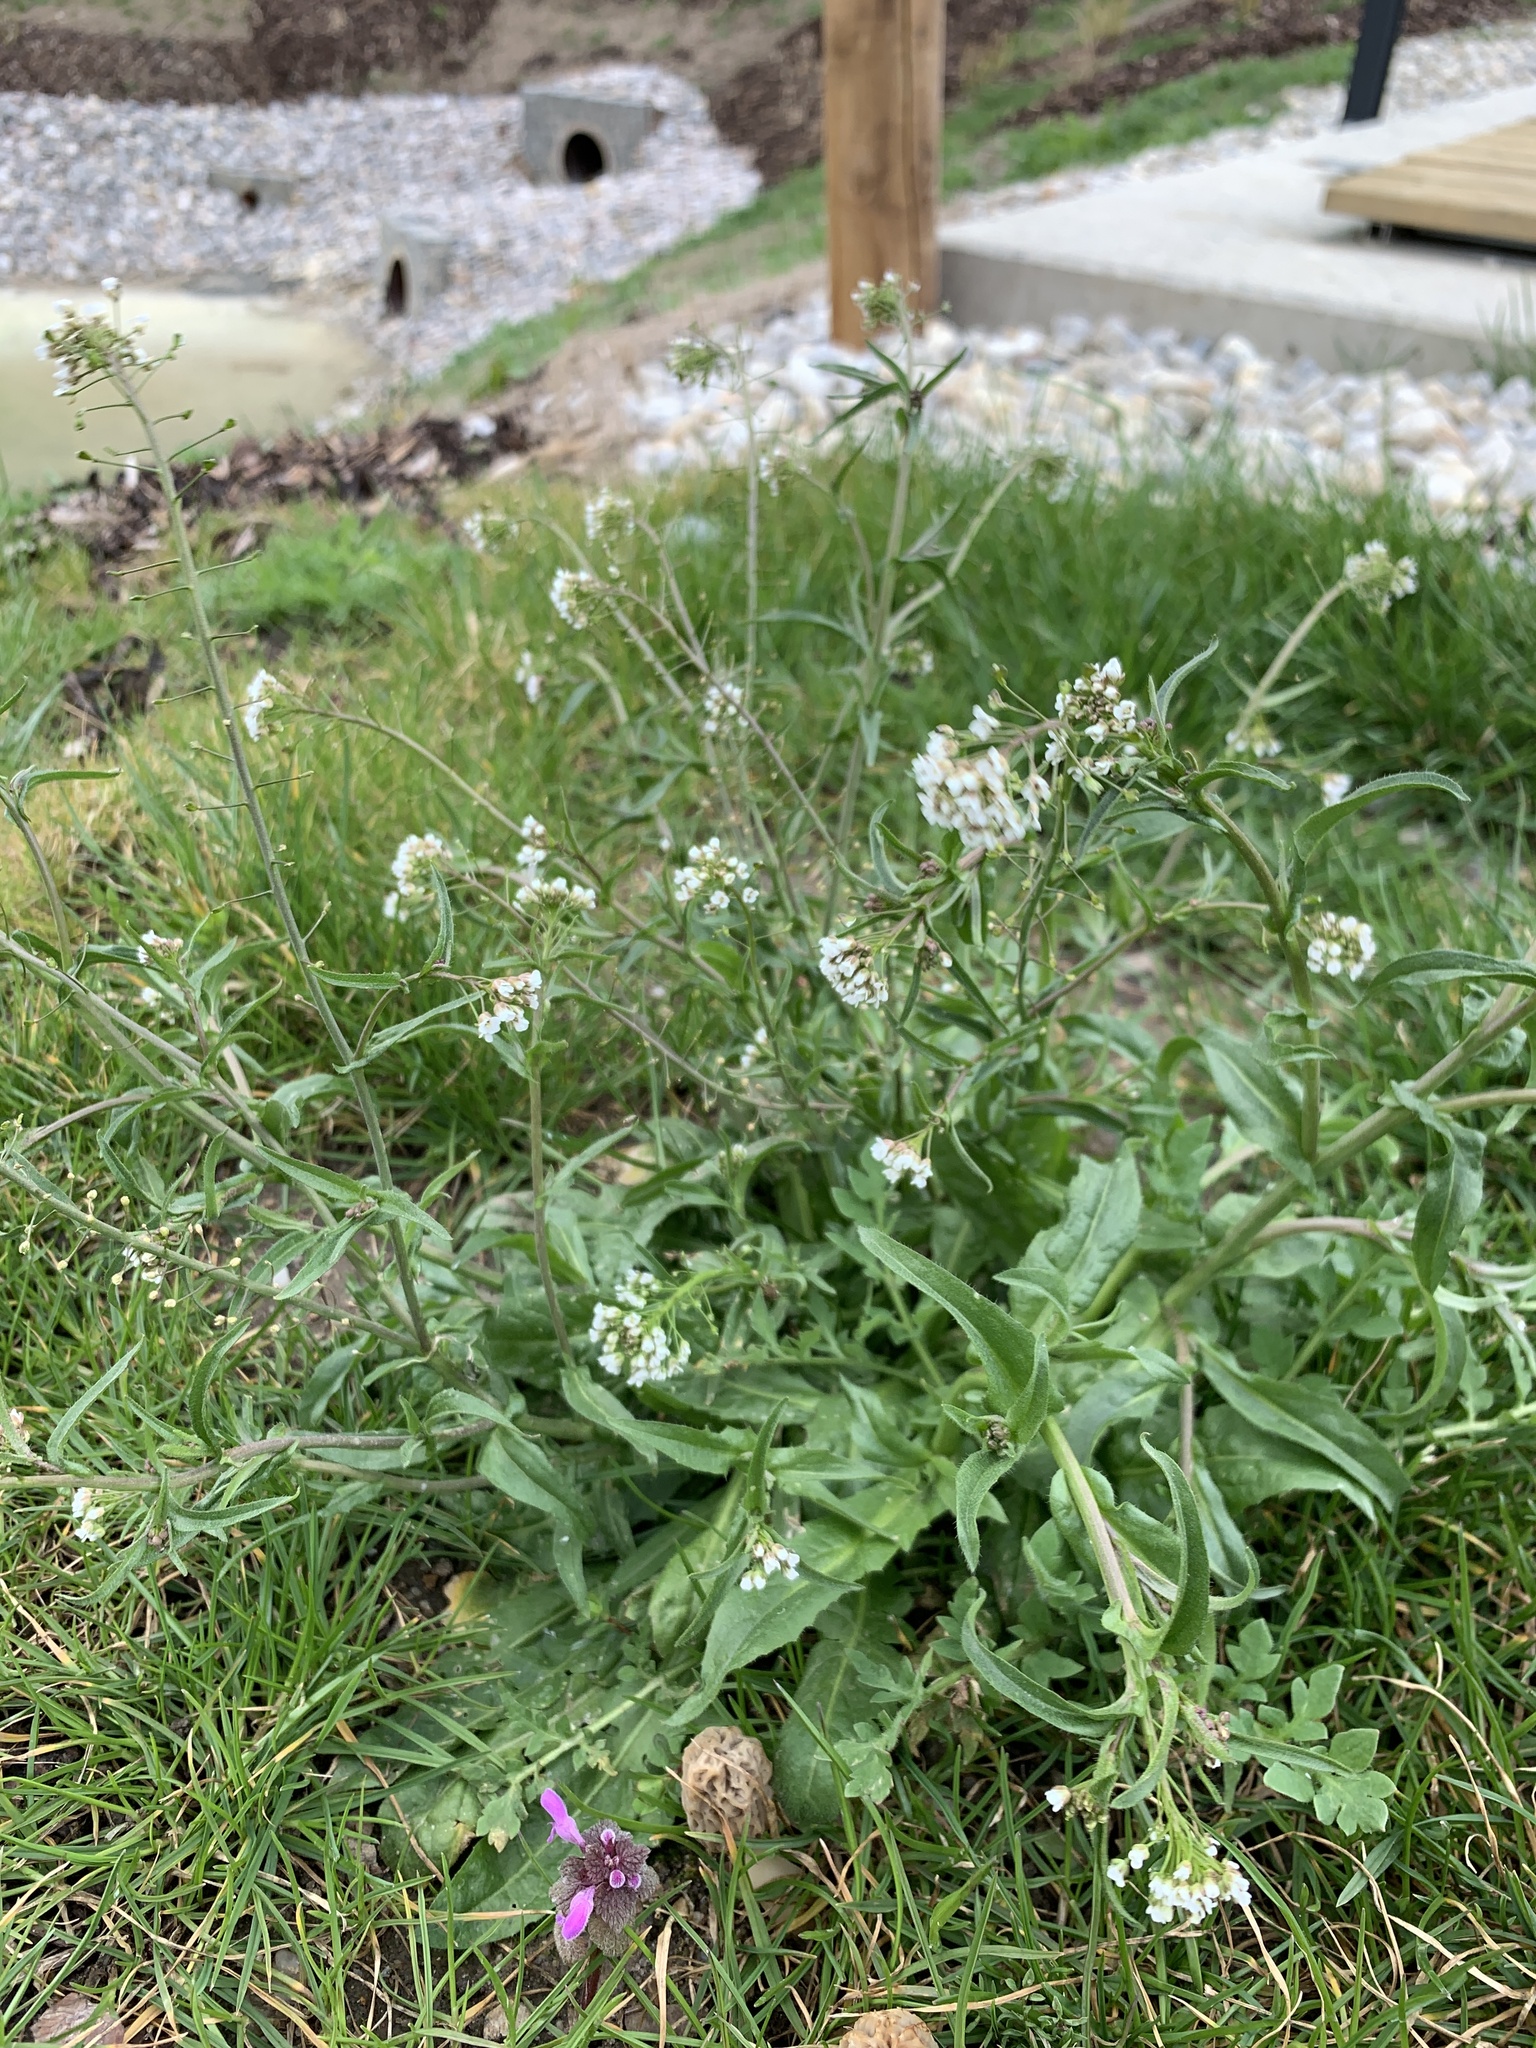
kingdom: Plantae
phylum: Tracheophyta
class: Magnoliopsida
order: Brassicales
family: Brassicaceae
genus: Capsella
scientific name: Capsella bursa-pastoris
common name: Shepherd's purse
